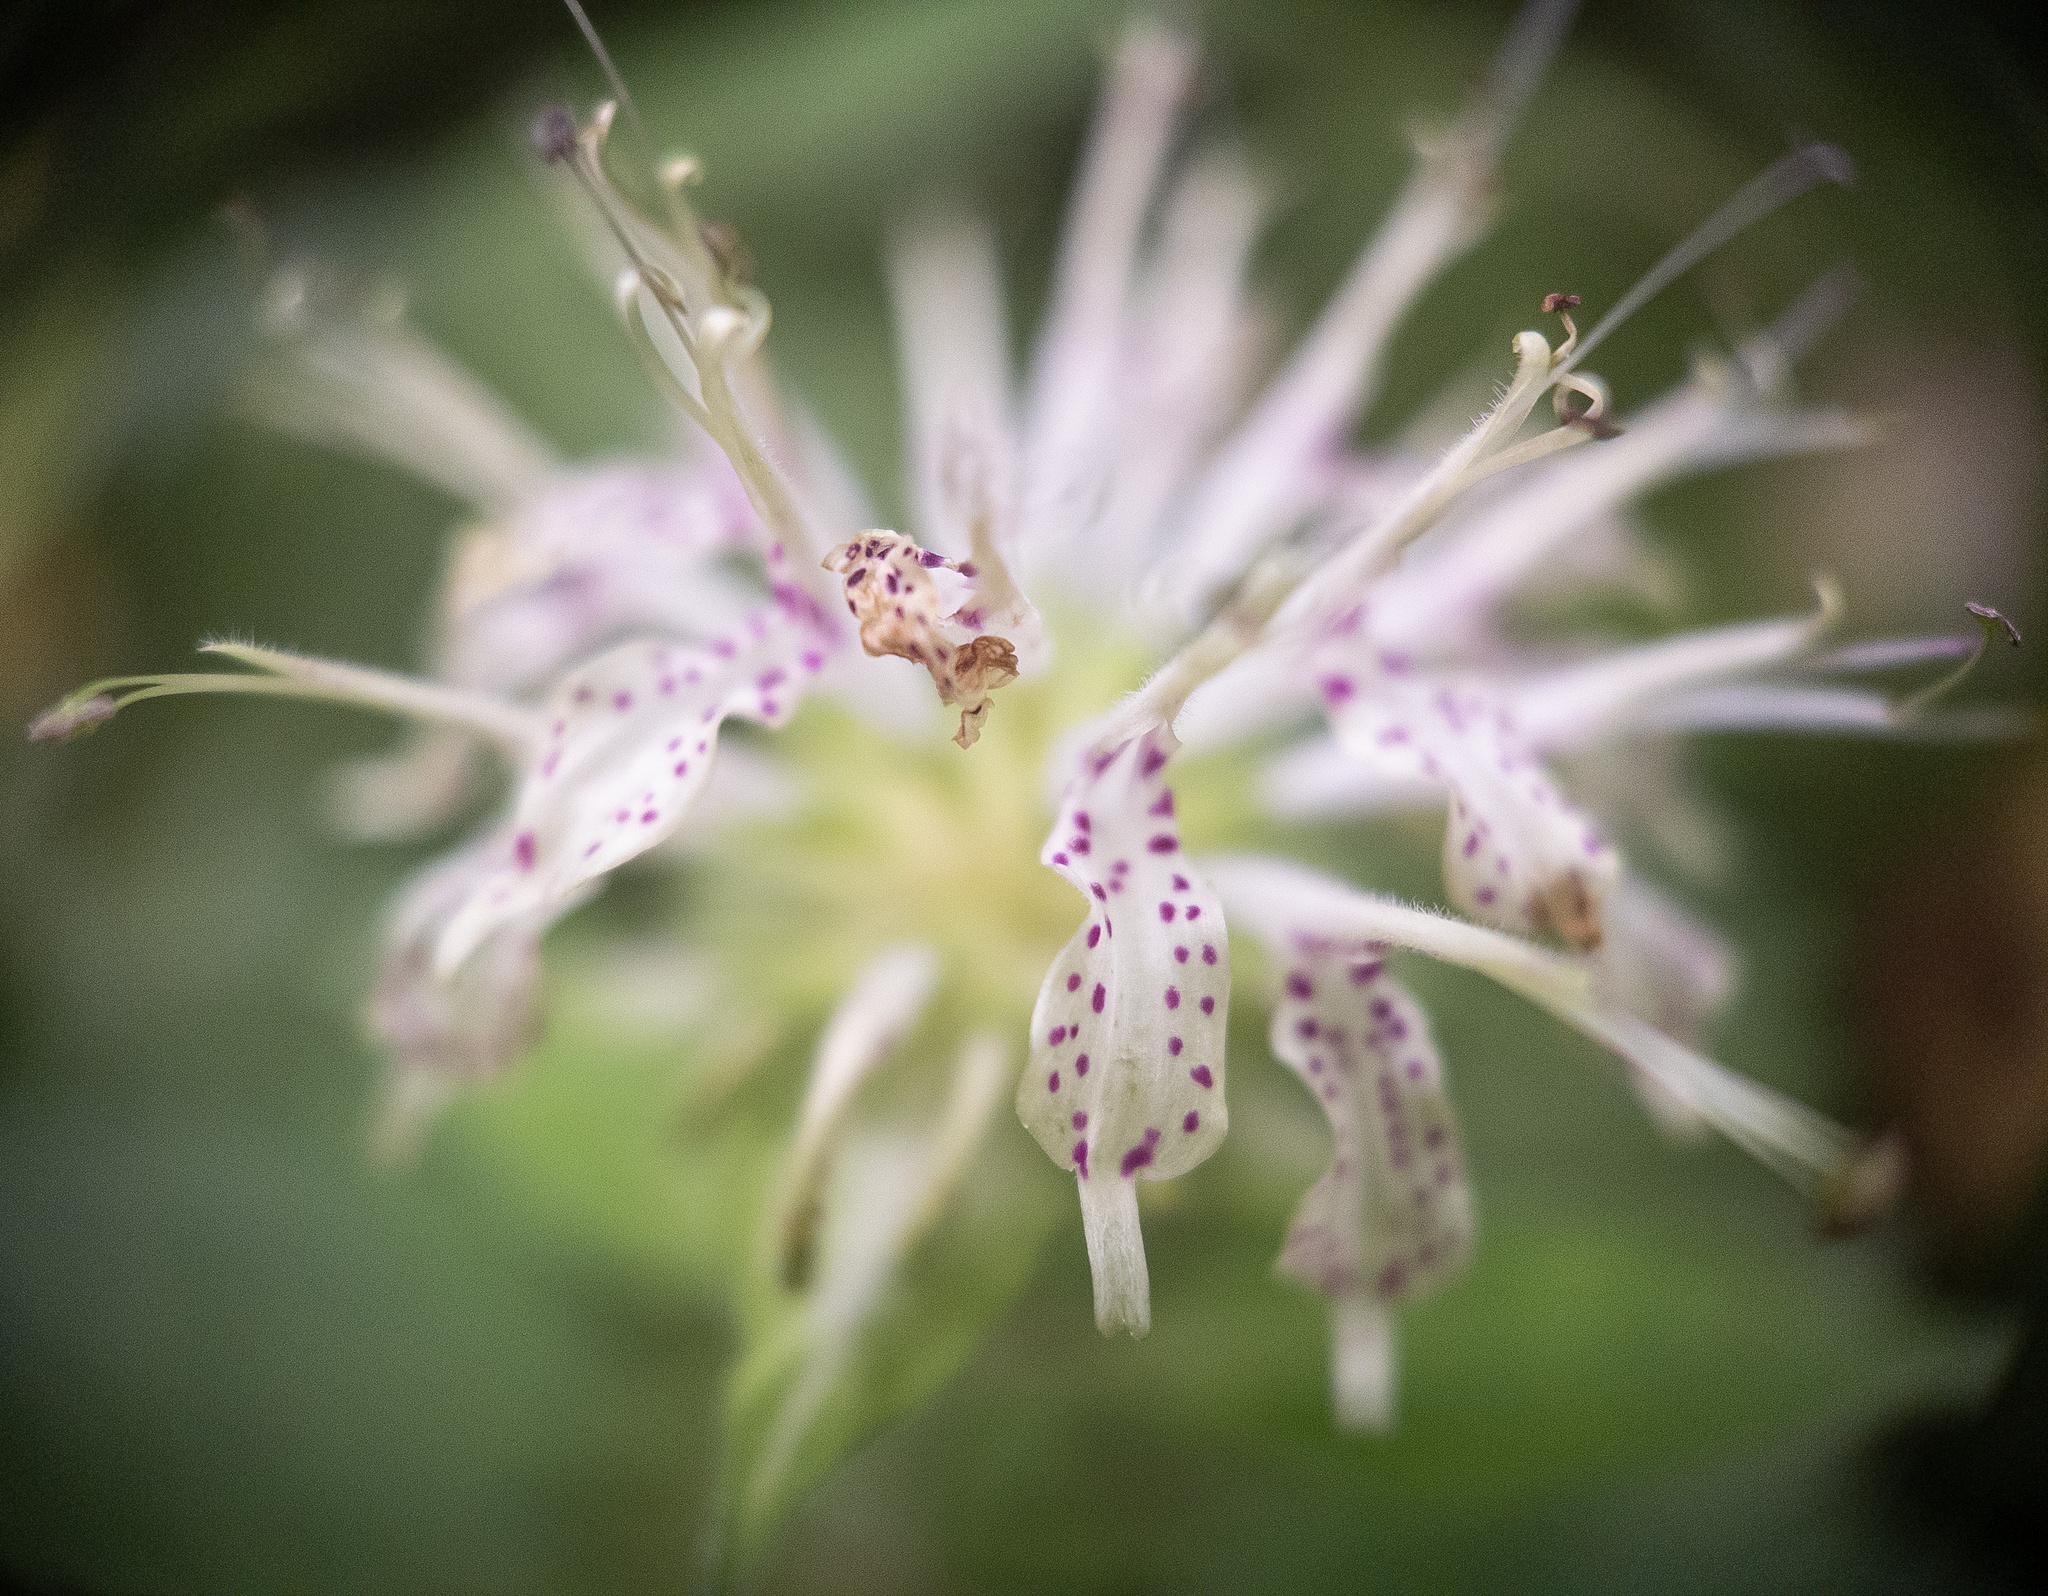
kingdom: Plantae
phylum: Tracheophyta
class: Magnoliopsida
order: Lamiales
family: Lamiaceae
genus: Monarda
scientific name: Monarda clinopodia
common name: Basil beebalm
